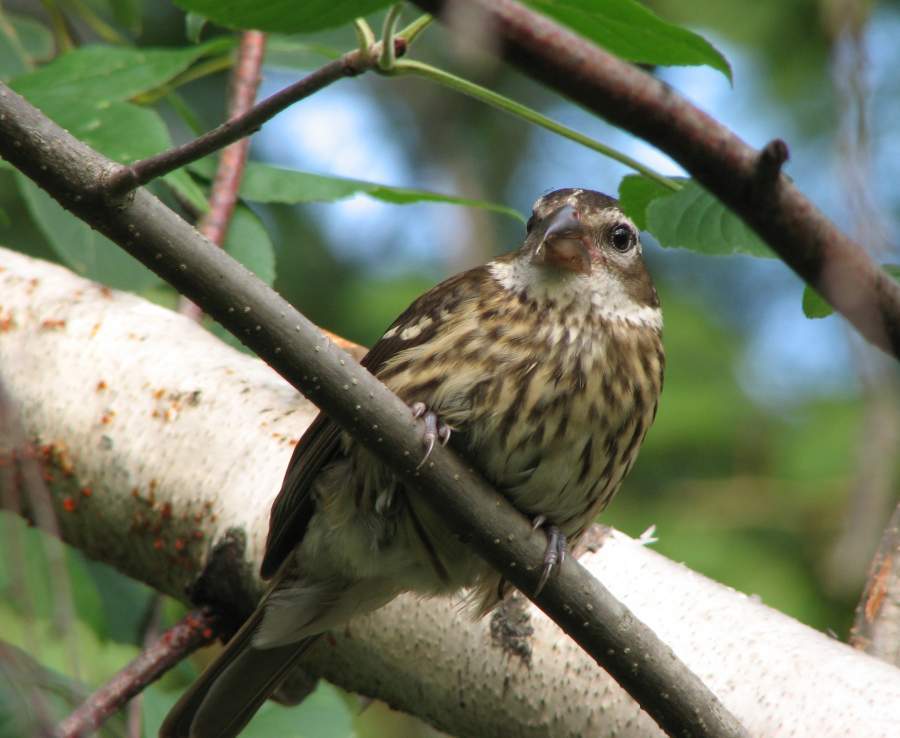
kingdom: Animalia
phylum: Chordata
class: Aves
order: Passeriformes
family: Cardinalidae
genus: Pheucticus
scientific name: Pheucticus ludovicianus
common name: Rose-breasted grosbeak
